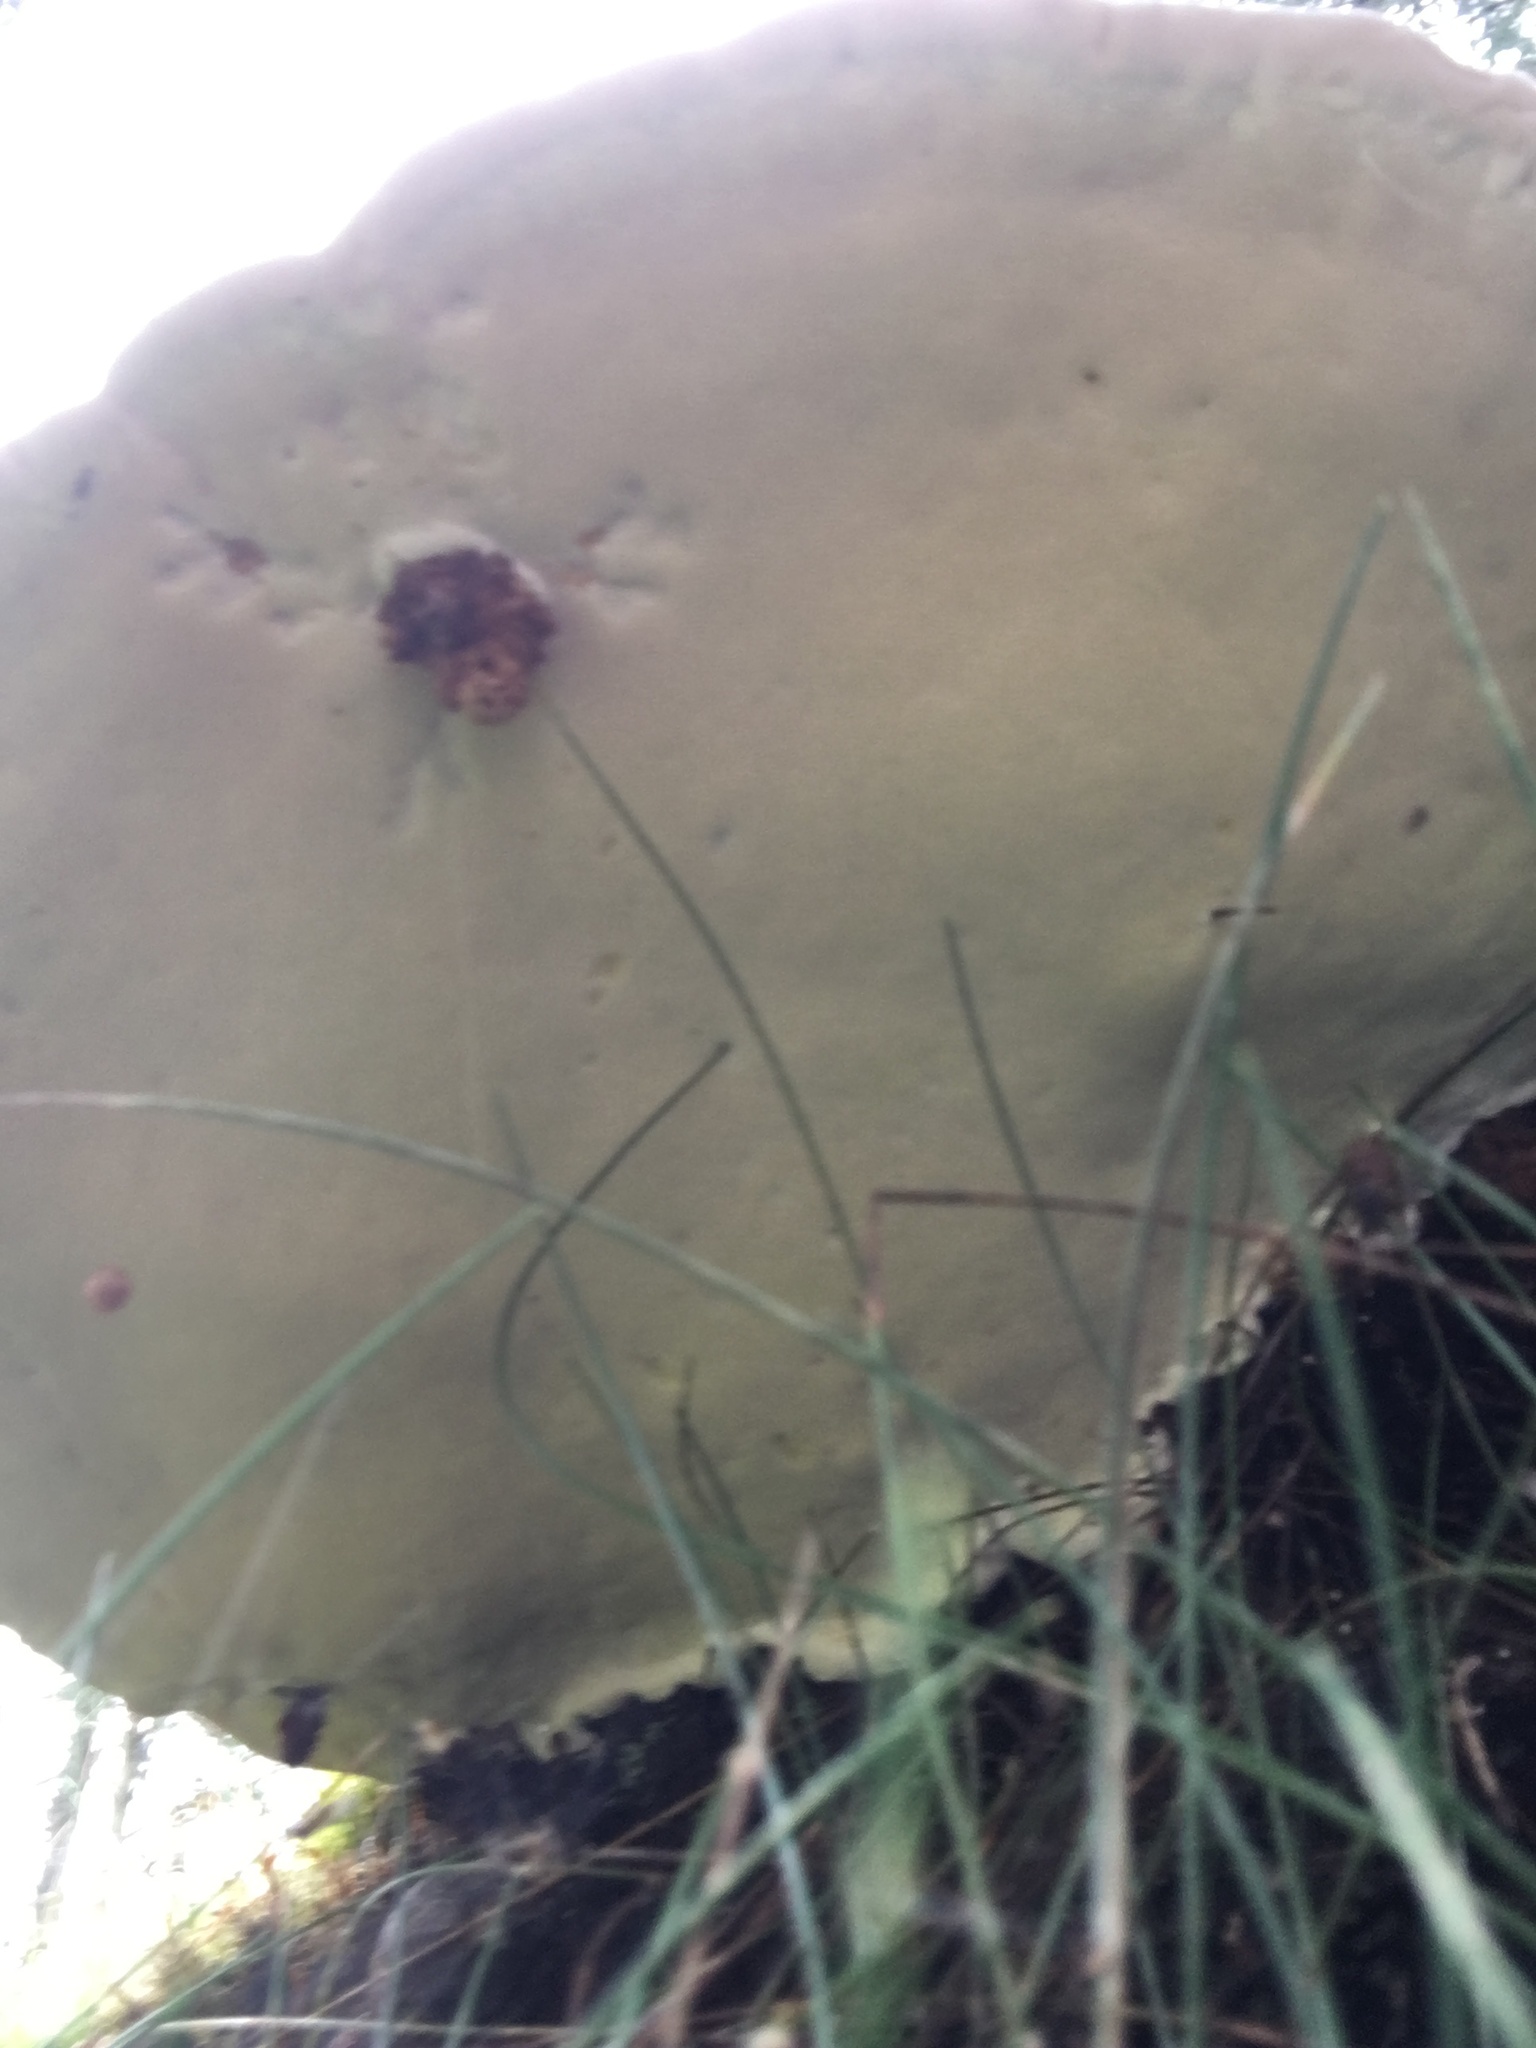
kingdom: Fungi
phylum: Basidiomycota
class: Agaricomycetes
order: Polyporales
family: Fomitopsidaceae
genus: Fomitopsis
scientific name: Fomitopsis pinicola
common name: Red-belted bracket
